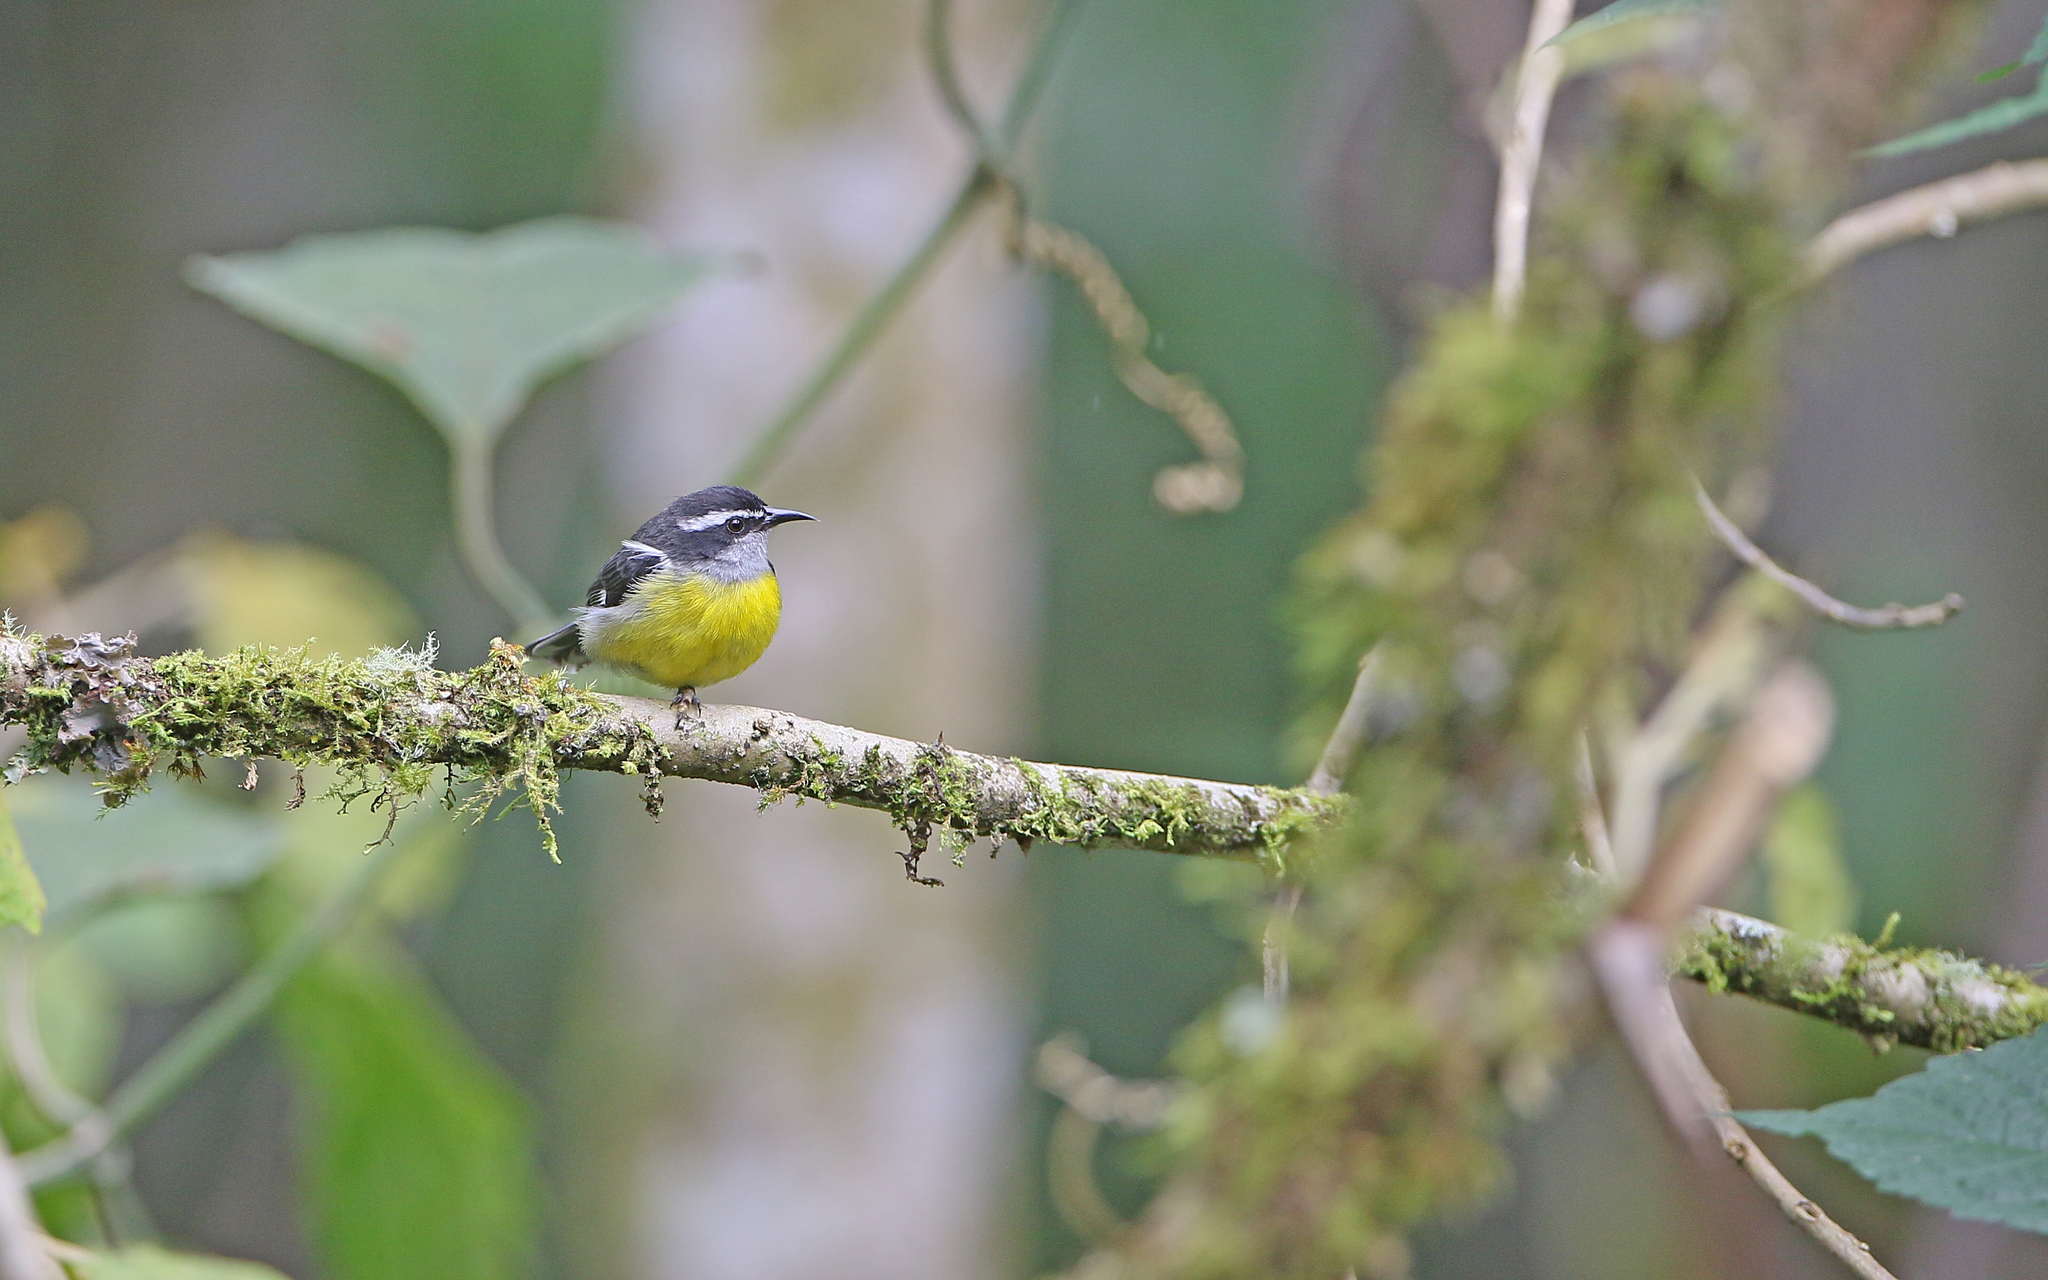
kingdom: Animalia
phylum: Chordata
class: Aves
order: Passeriformes
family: Thraupidae
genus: Coereba
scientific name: Coereba flaveola
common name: Bananaquit
